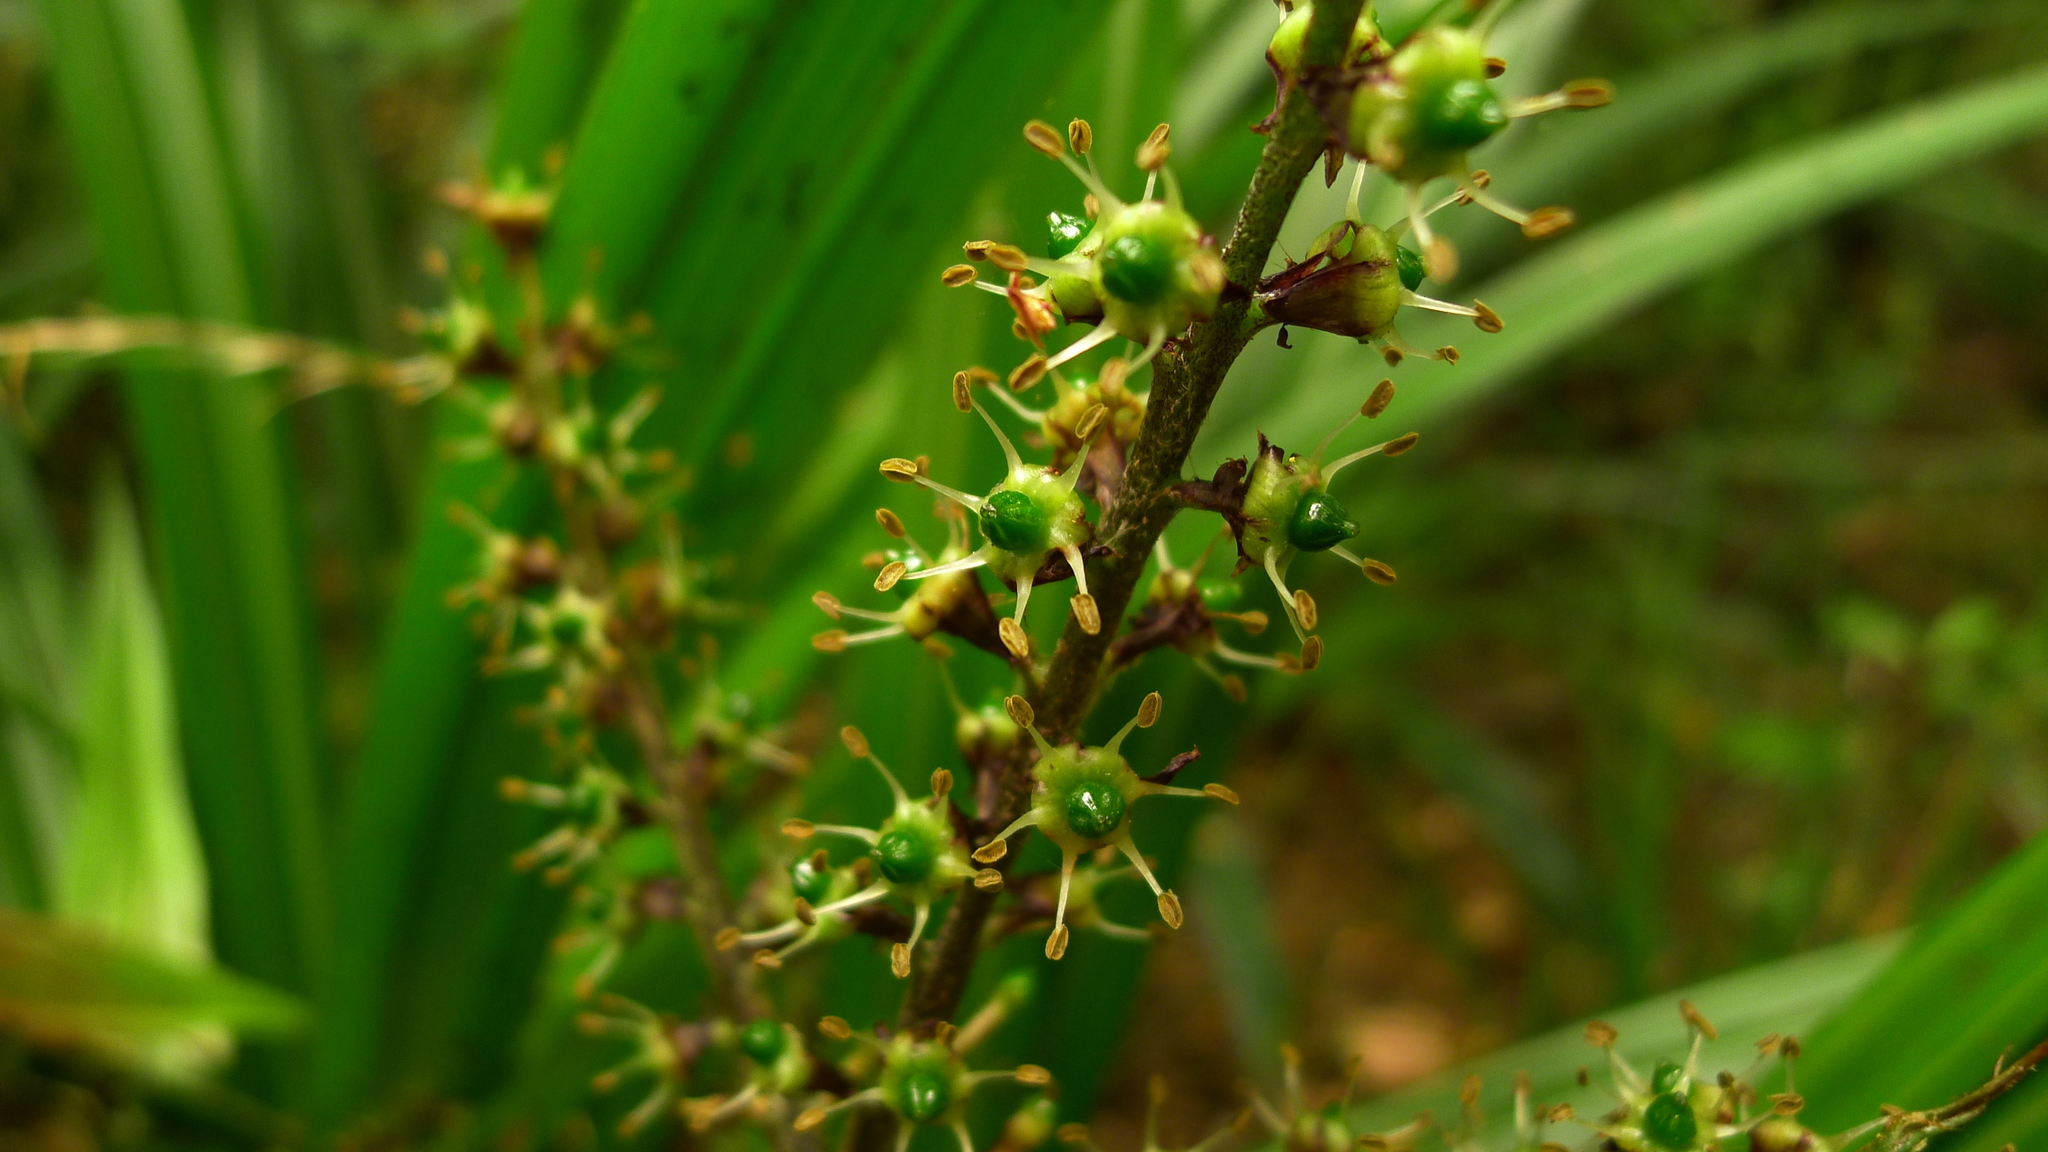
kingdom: Plantae
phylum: Tracheophyta
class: Liliopsida
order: Asparagales
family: Asteliaceae
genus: Astelia
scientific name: Astelia fragrans
